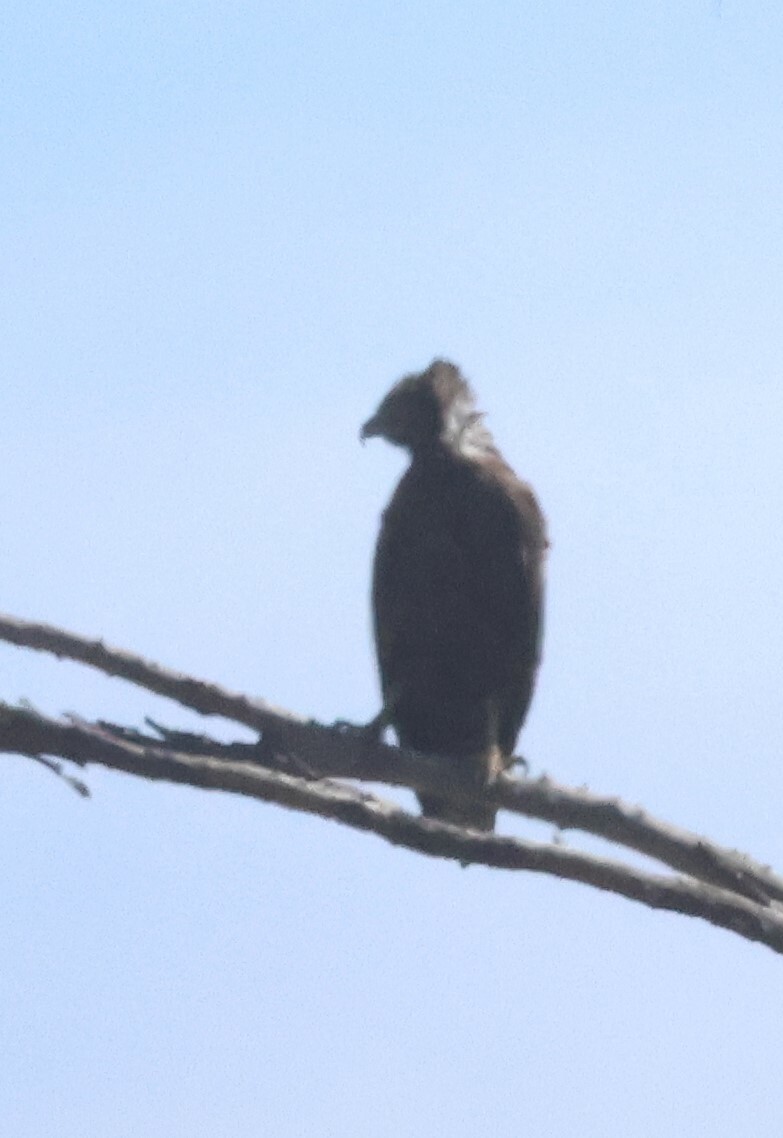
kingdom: Animalia
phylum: Chordata
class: Aves
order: Accipitriformes
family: Accipitridae
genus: Circaetus
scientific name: Circaetus cinereus
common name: Brown snake eagle
